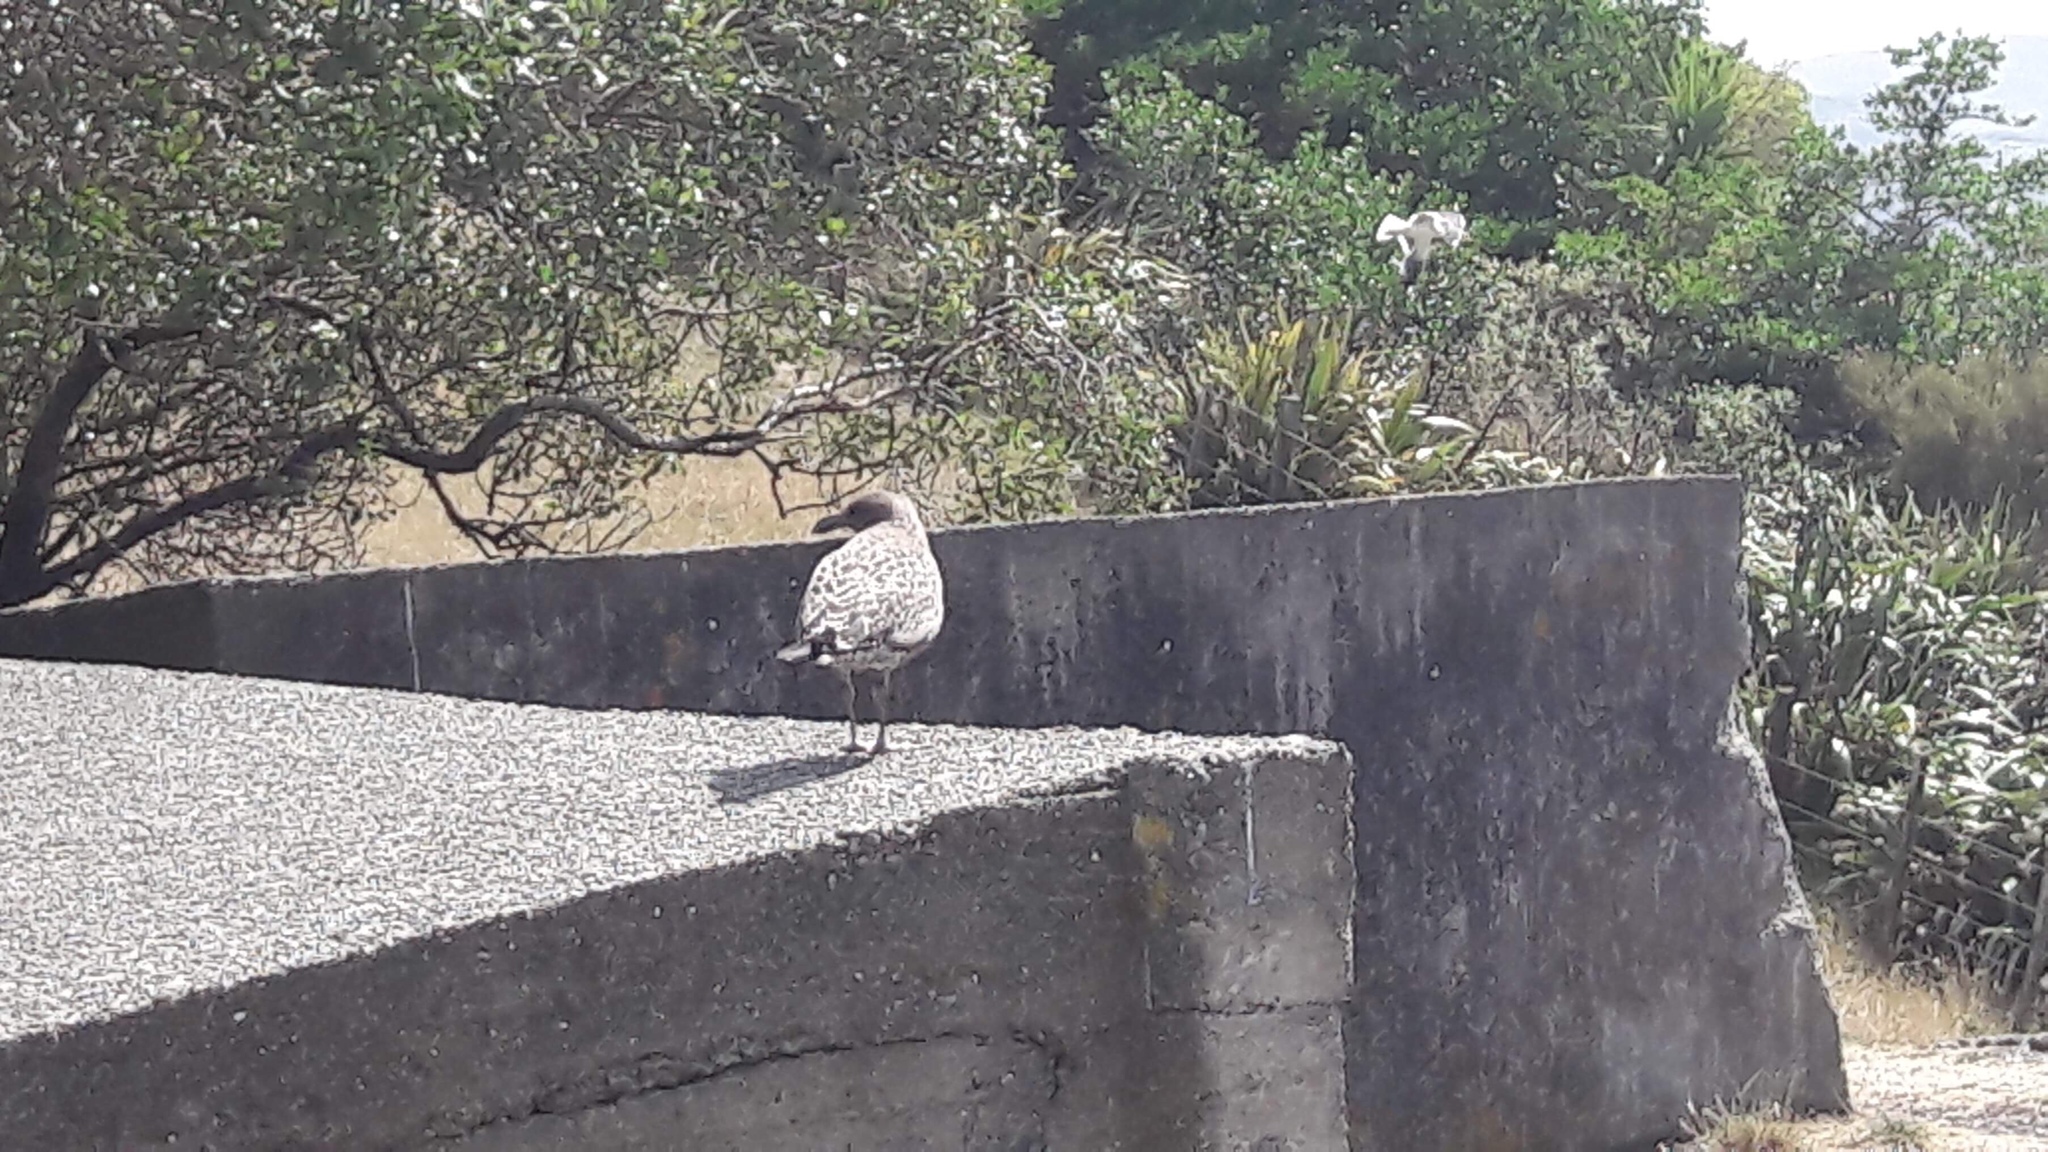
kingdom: Animalia
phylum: Chordata
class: Aves
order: Charadriiformes
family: Laridae
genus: Larus
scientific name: Larus dominicanus
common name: Kelp gull
